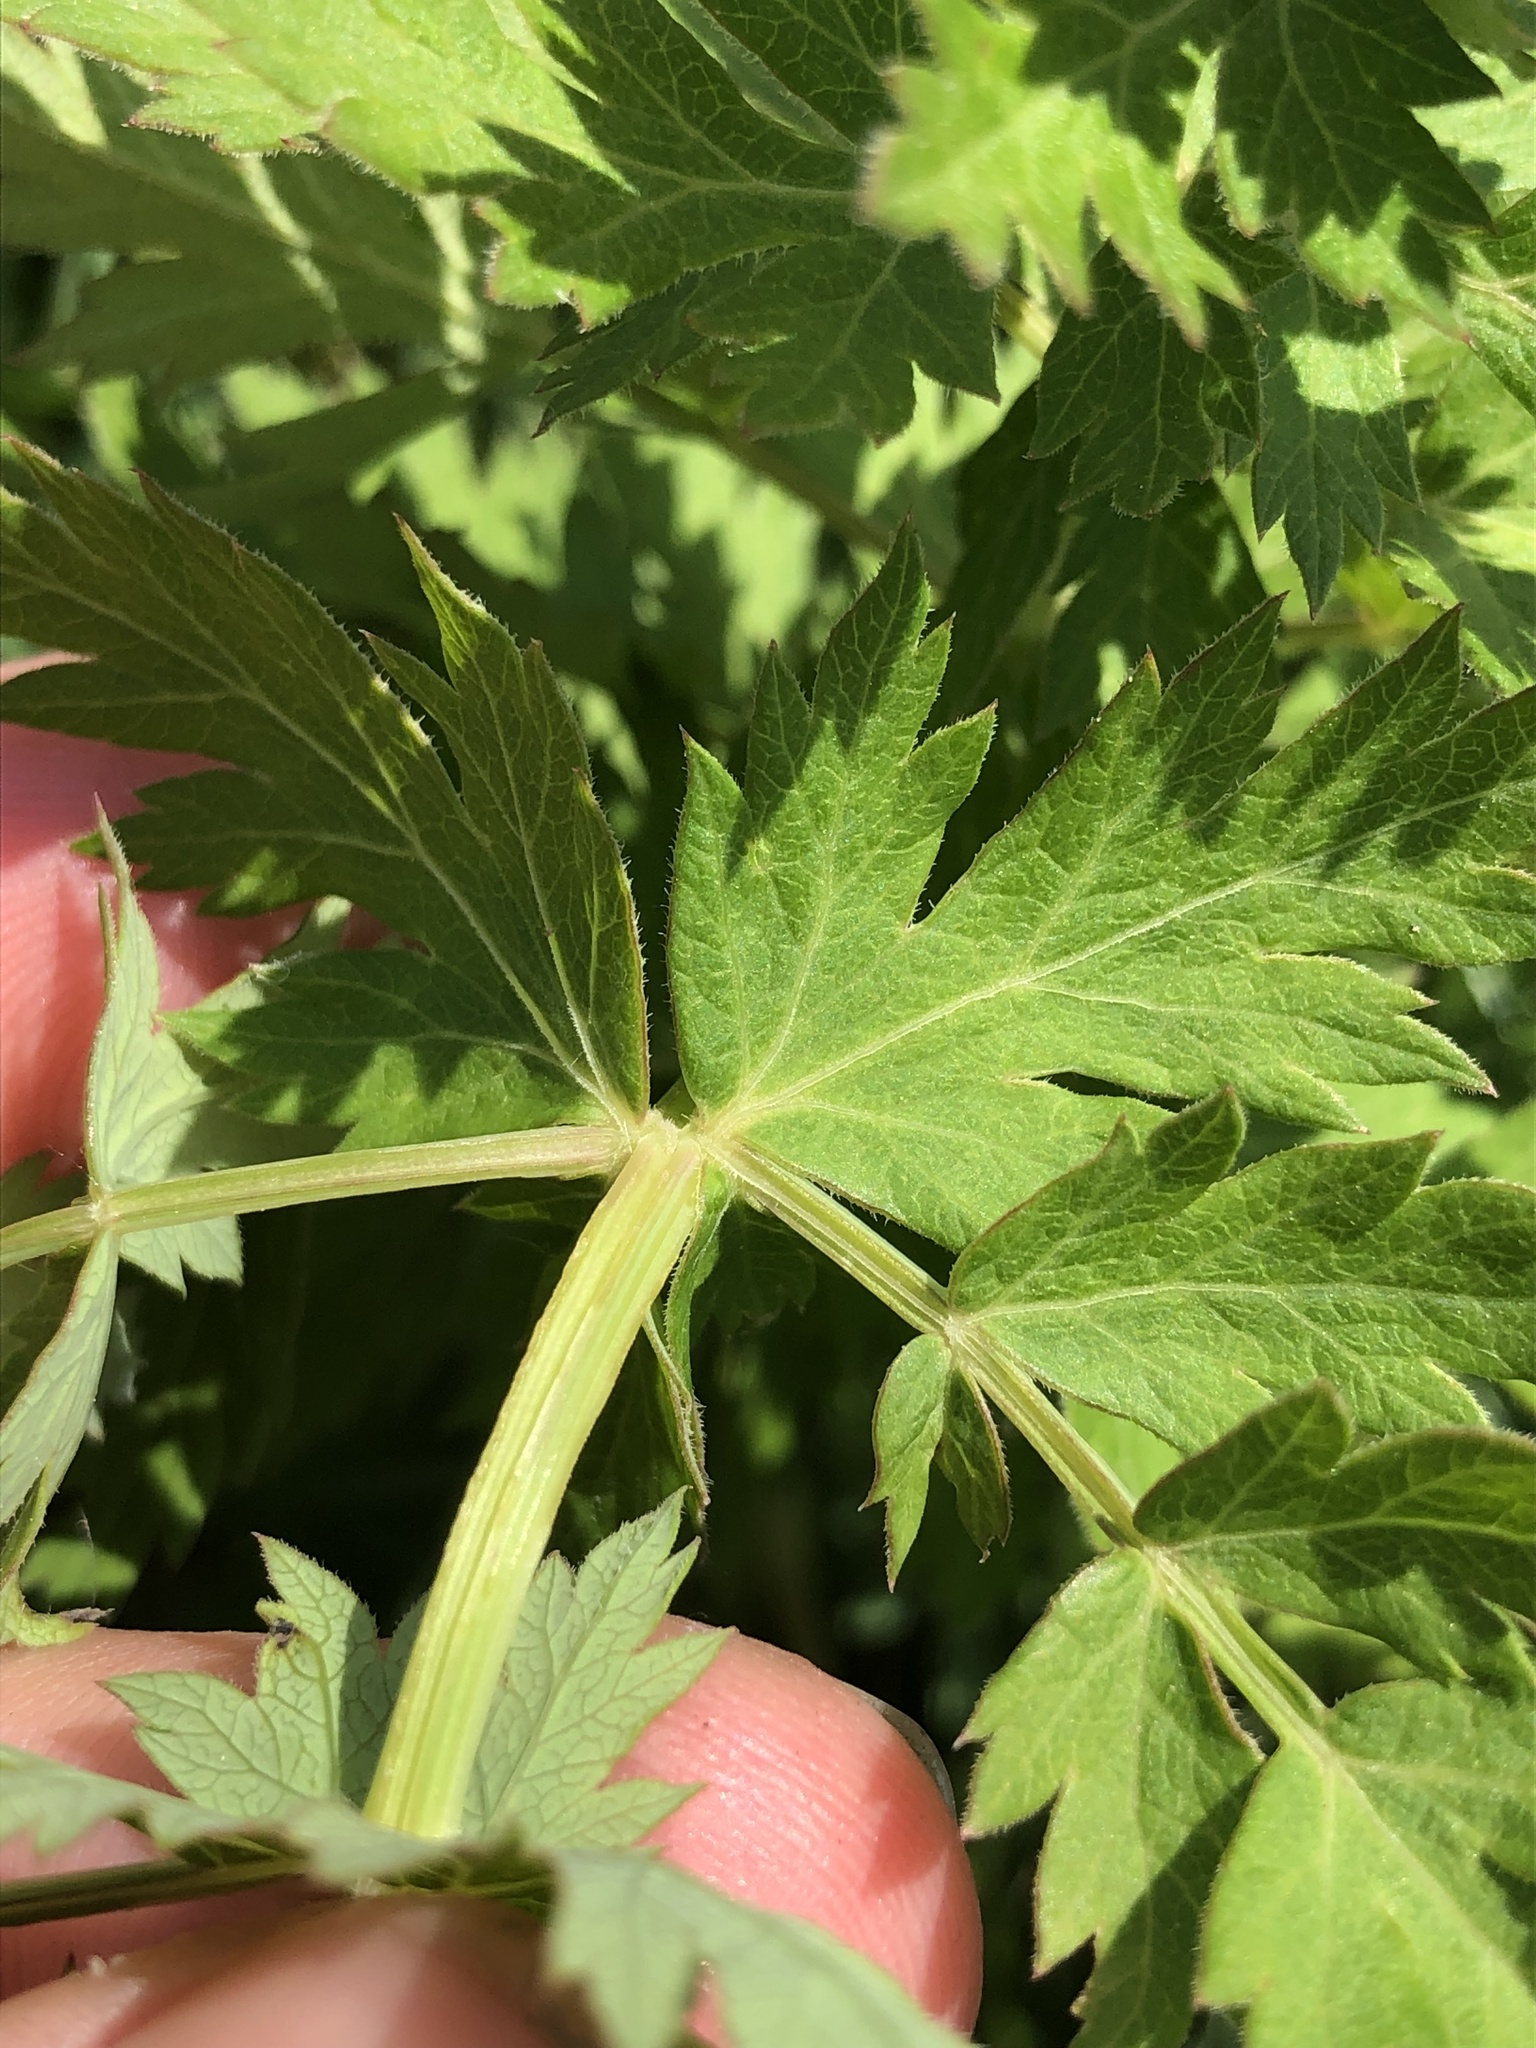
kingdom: Plantae
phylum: Tracheophyta
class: Magnoliopsida
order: Apiales
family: Apiaceae
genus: Seseli
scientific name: Seseli libanotis
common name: Mooncarrot
